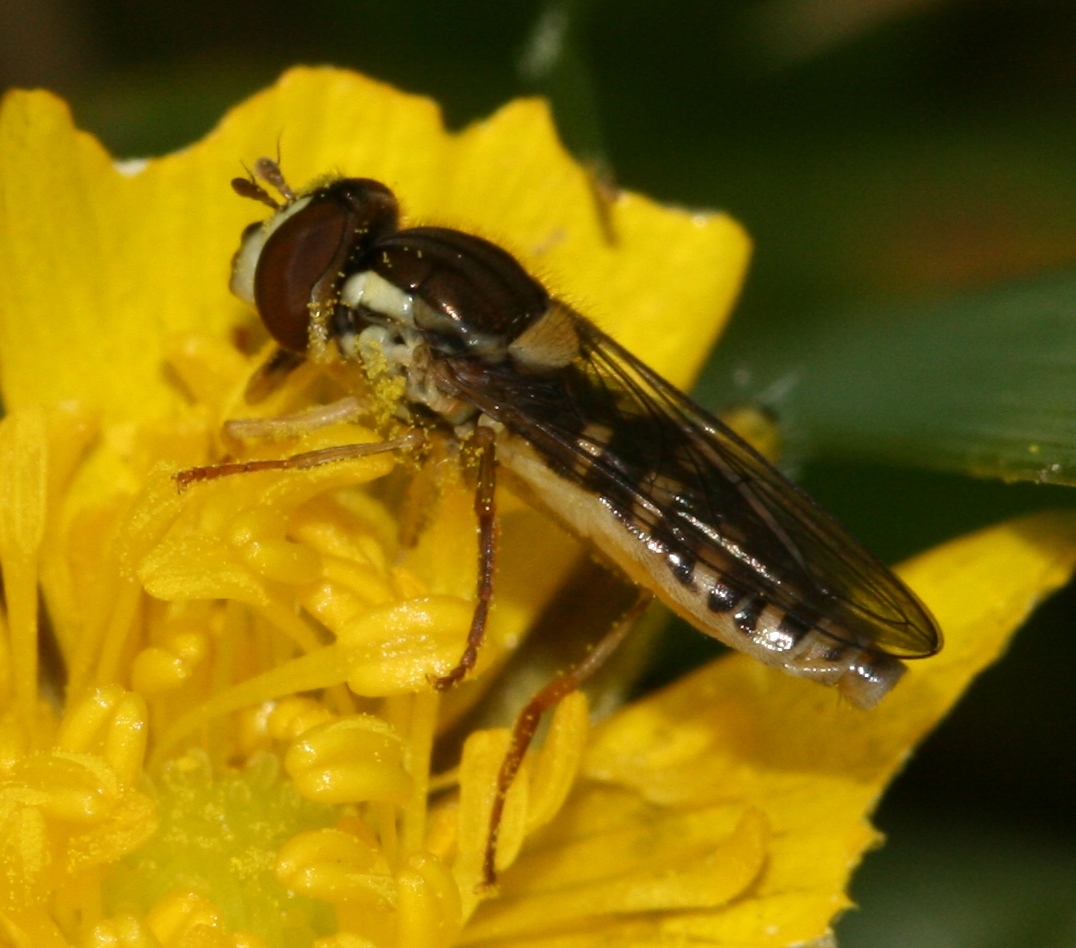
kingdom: Animalia
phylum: Arthropoda
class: Insecta
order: Diptera
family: Syrphidae
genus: Sphaerophoria
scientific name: Sphaerophoria
